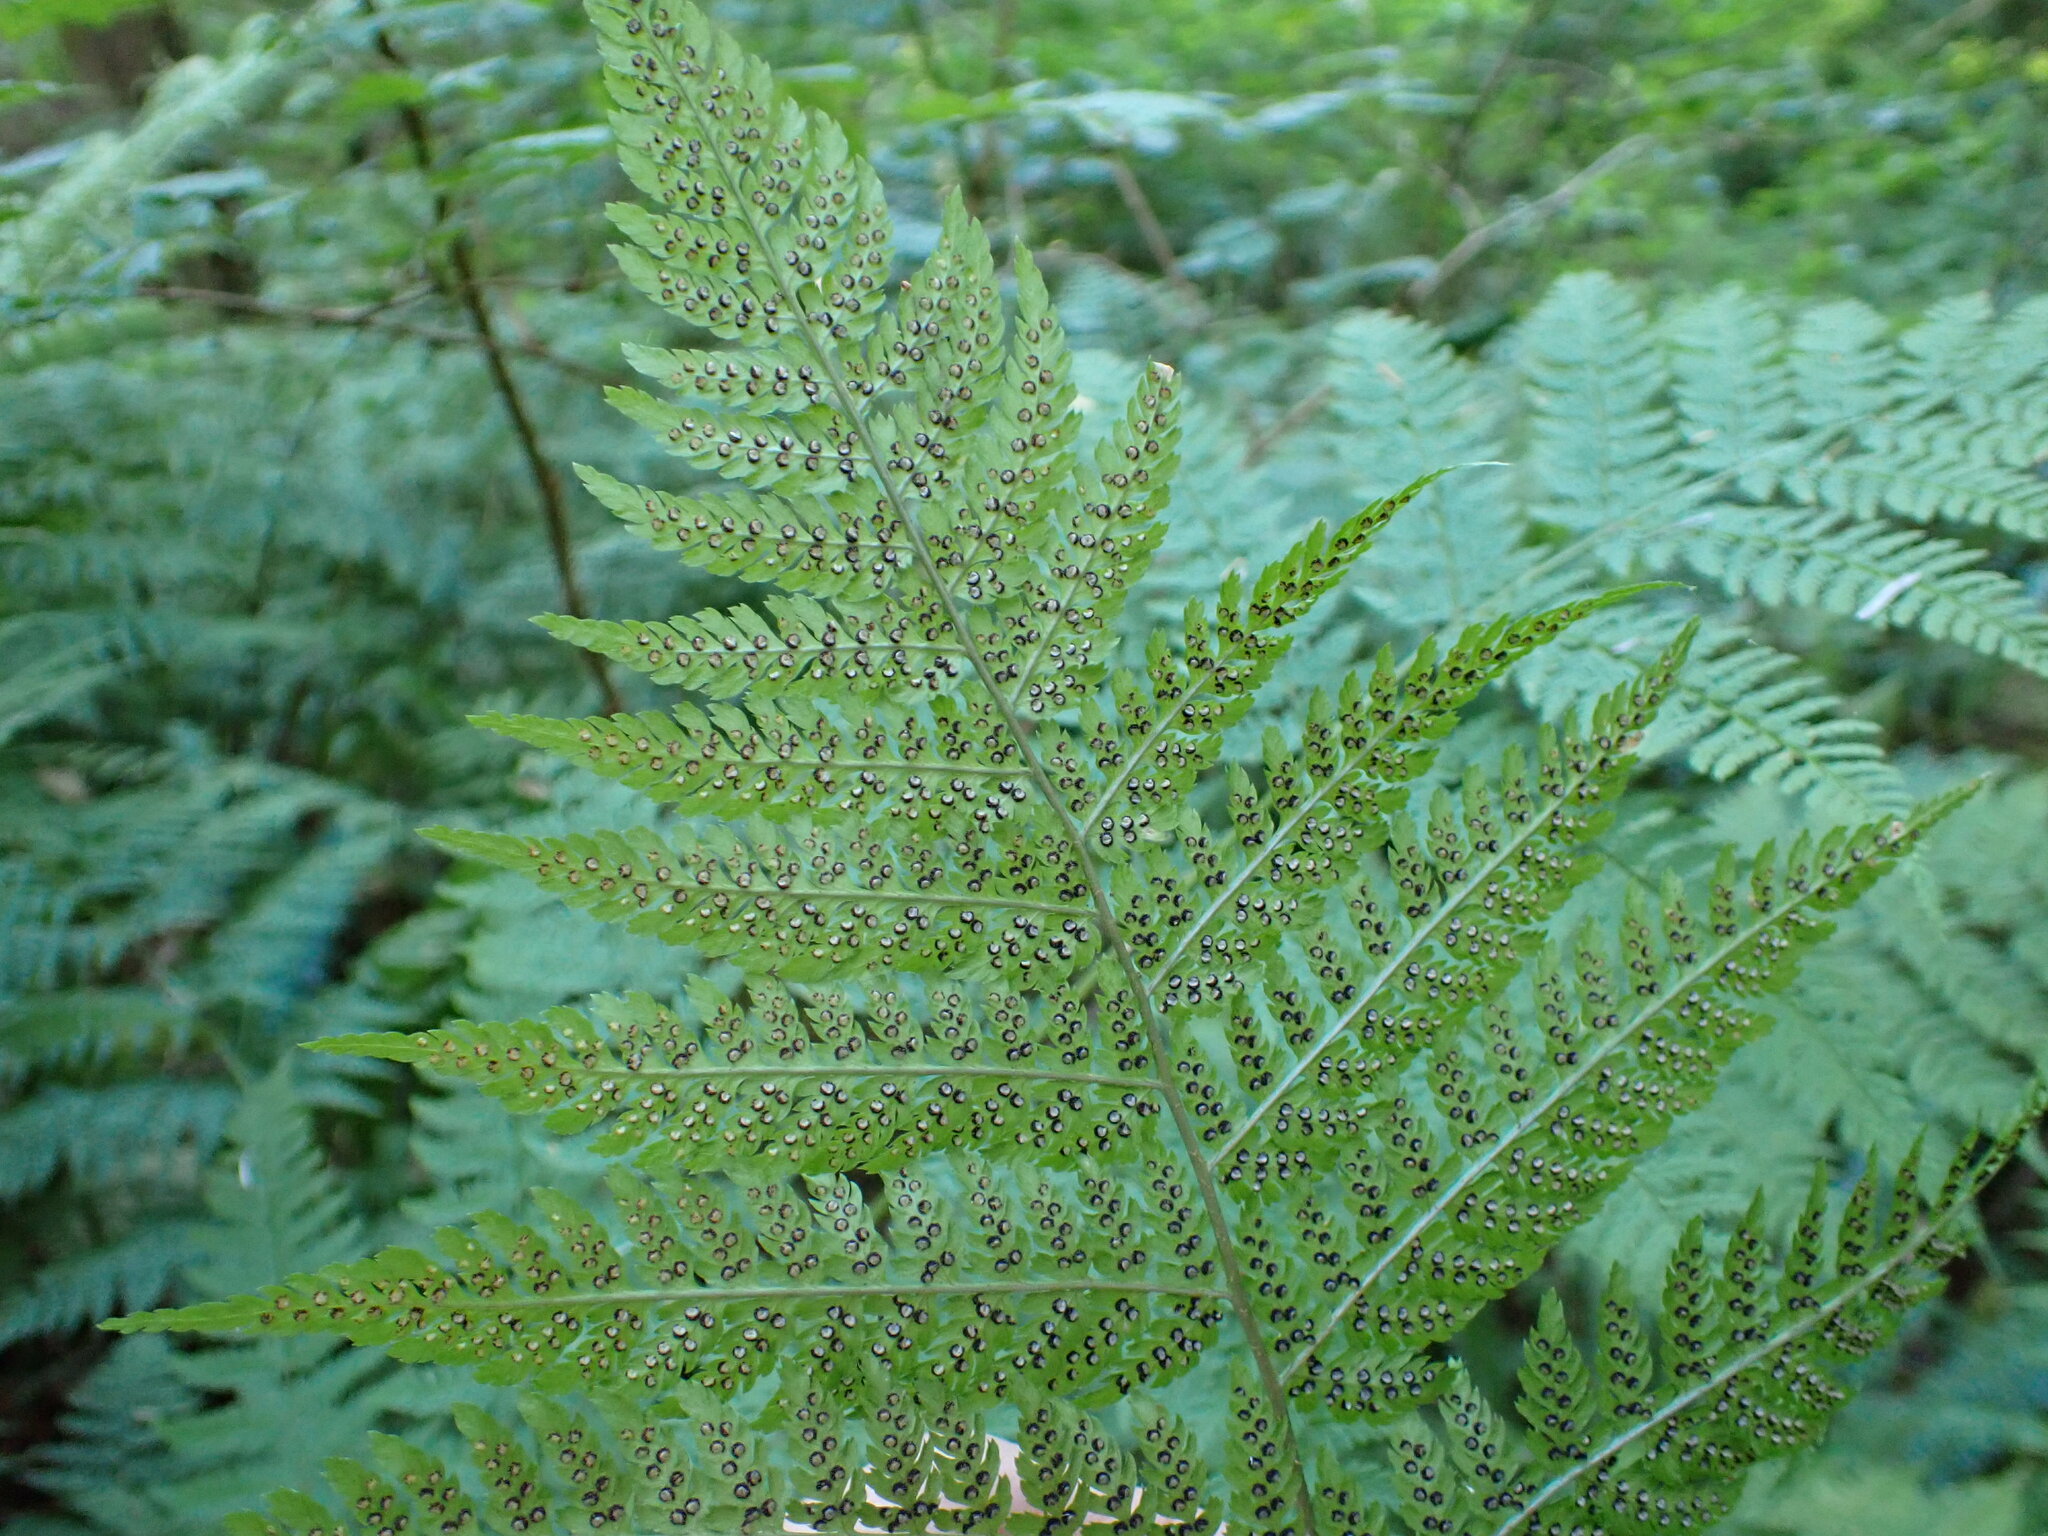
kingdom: Plantae
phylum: Tracheophyta
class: Polypodiopsida
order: Polypodiales
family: Dryopteridaceae
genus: Dryopteris
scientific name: Dryopteris expansa
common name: Northern buckler fern
